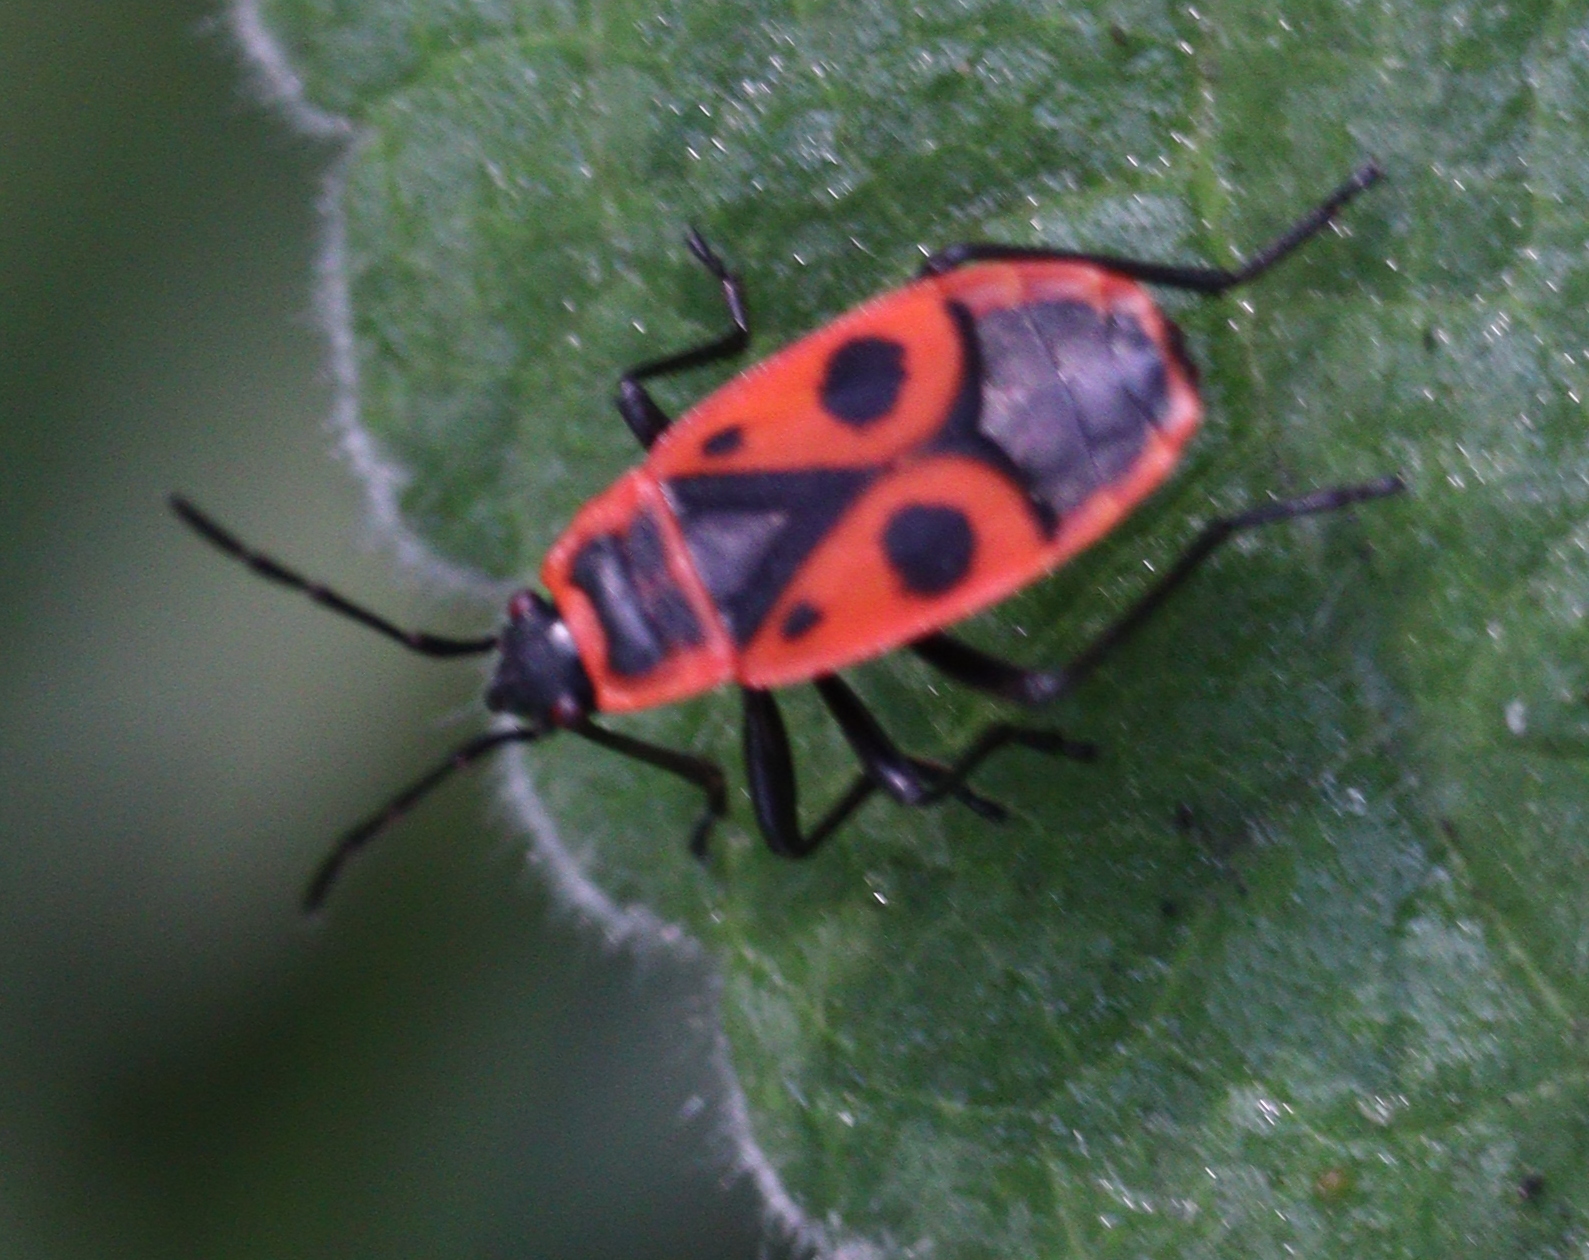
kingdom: Animalia
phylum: Arthropoda
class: Insecta
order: Hemiptera
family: Pyrrhocoridae
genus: Pyrrhocoris
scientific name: Pyrrhocoris apterus
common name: Firebug
